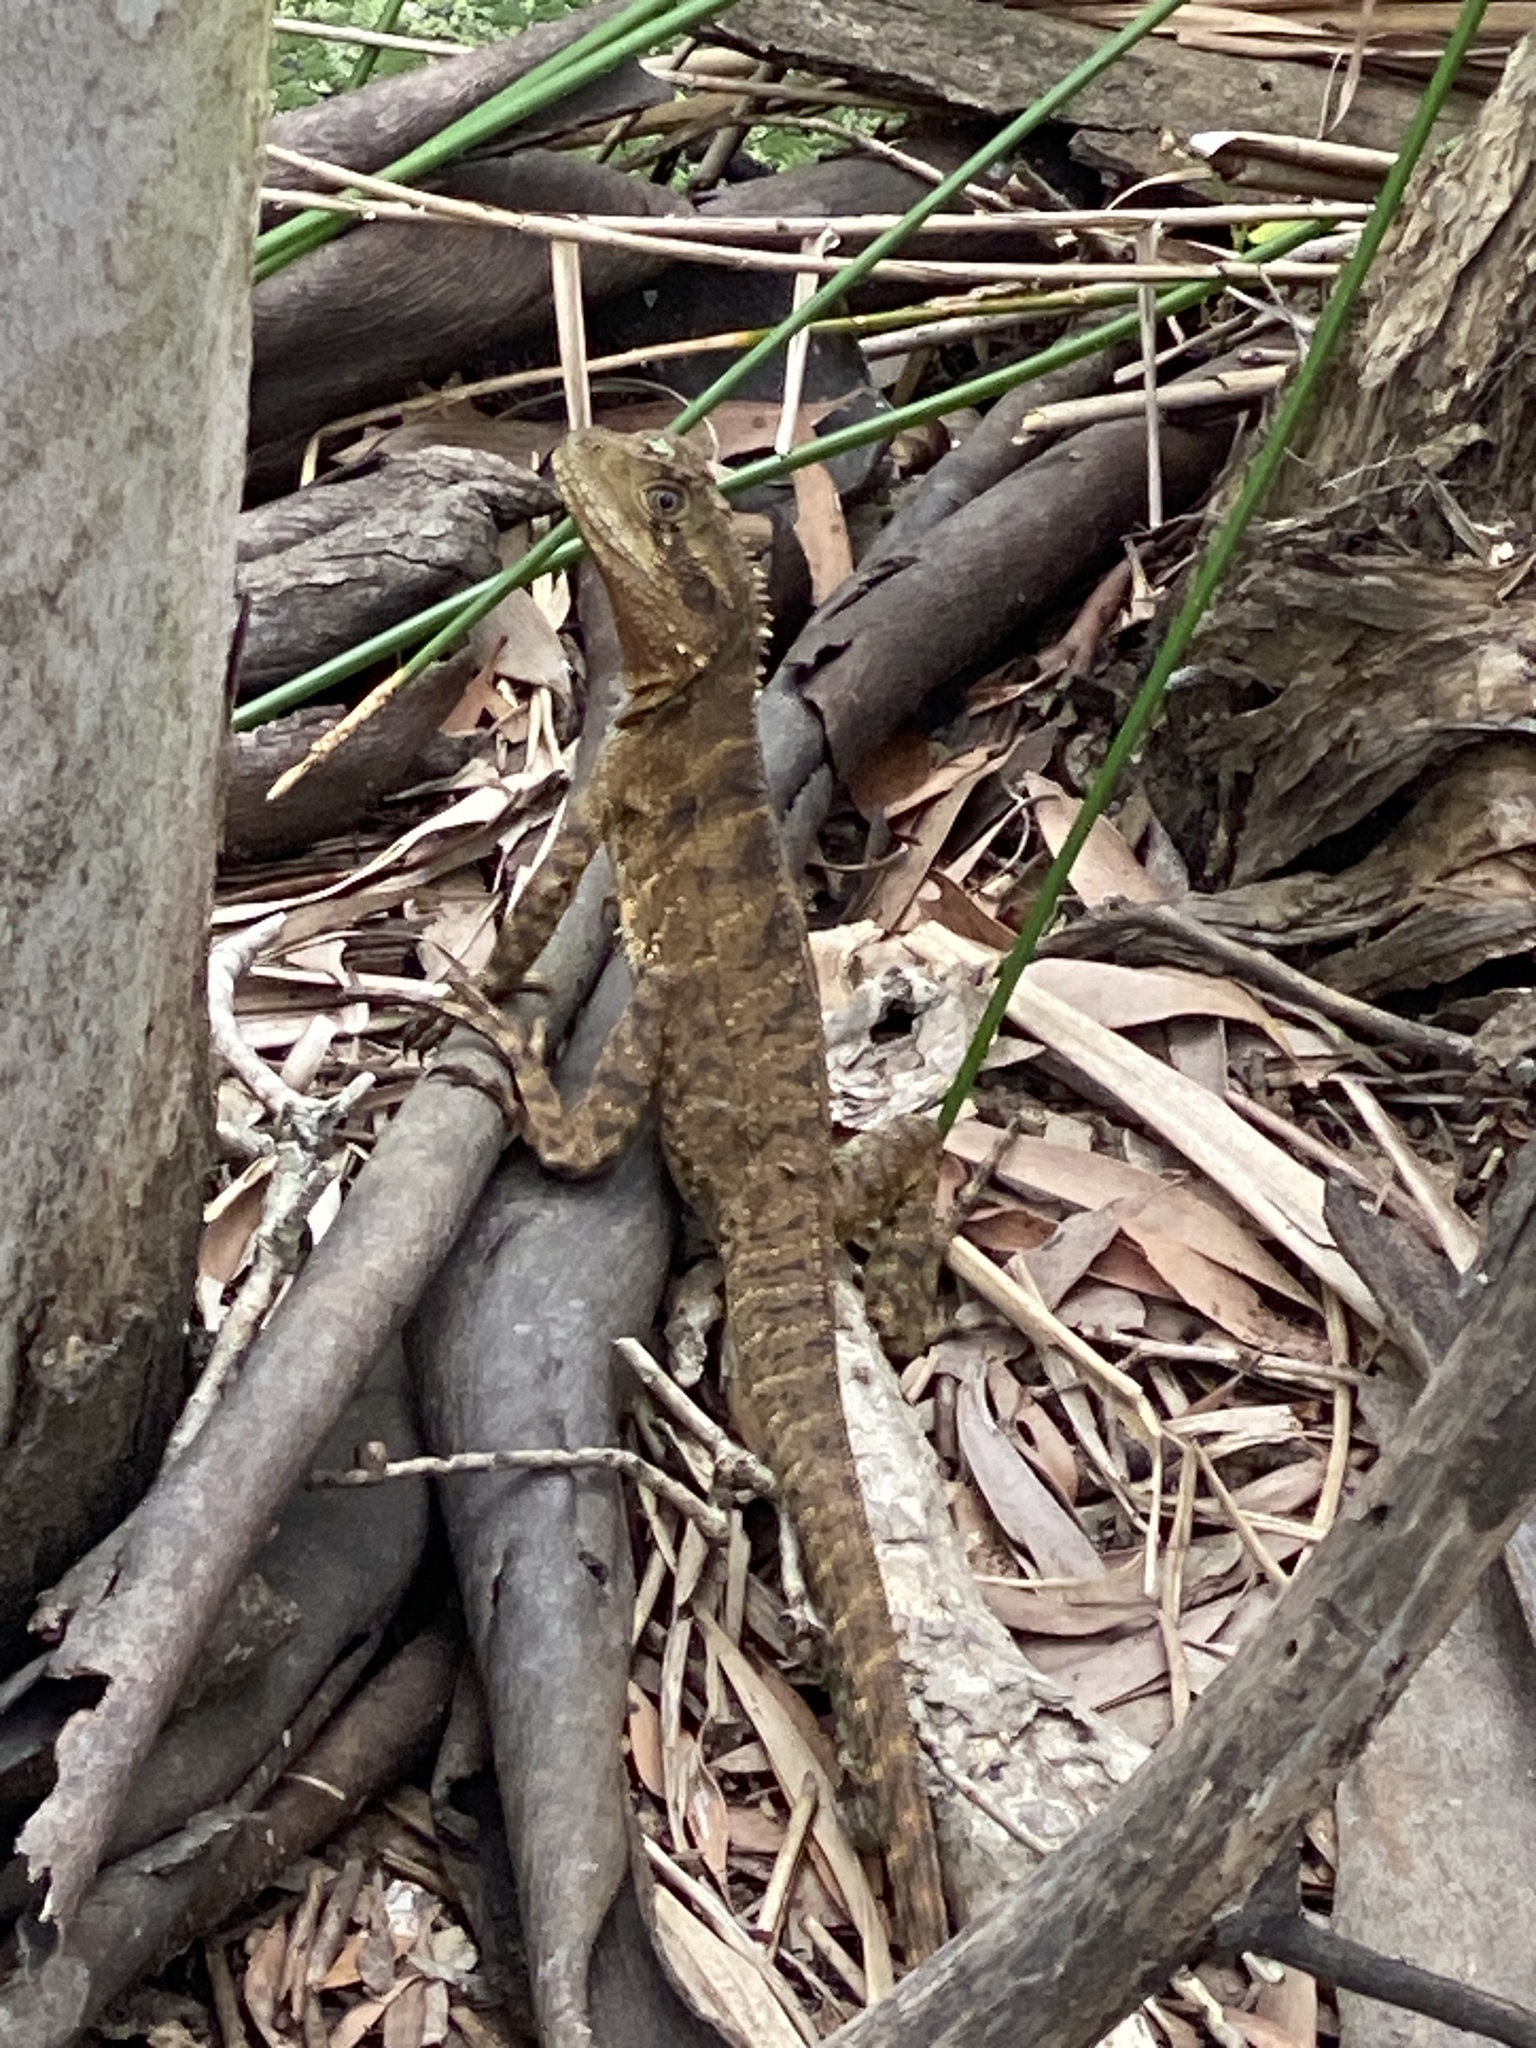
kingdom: Animalia
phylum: Chordata
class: Squamata
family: Agamidae
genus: Intellagama
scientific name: Intellagama lesueurii
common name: Eastern water dragon
